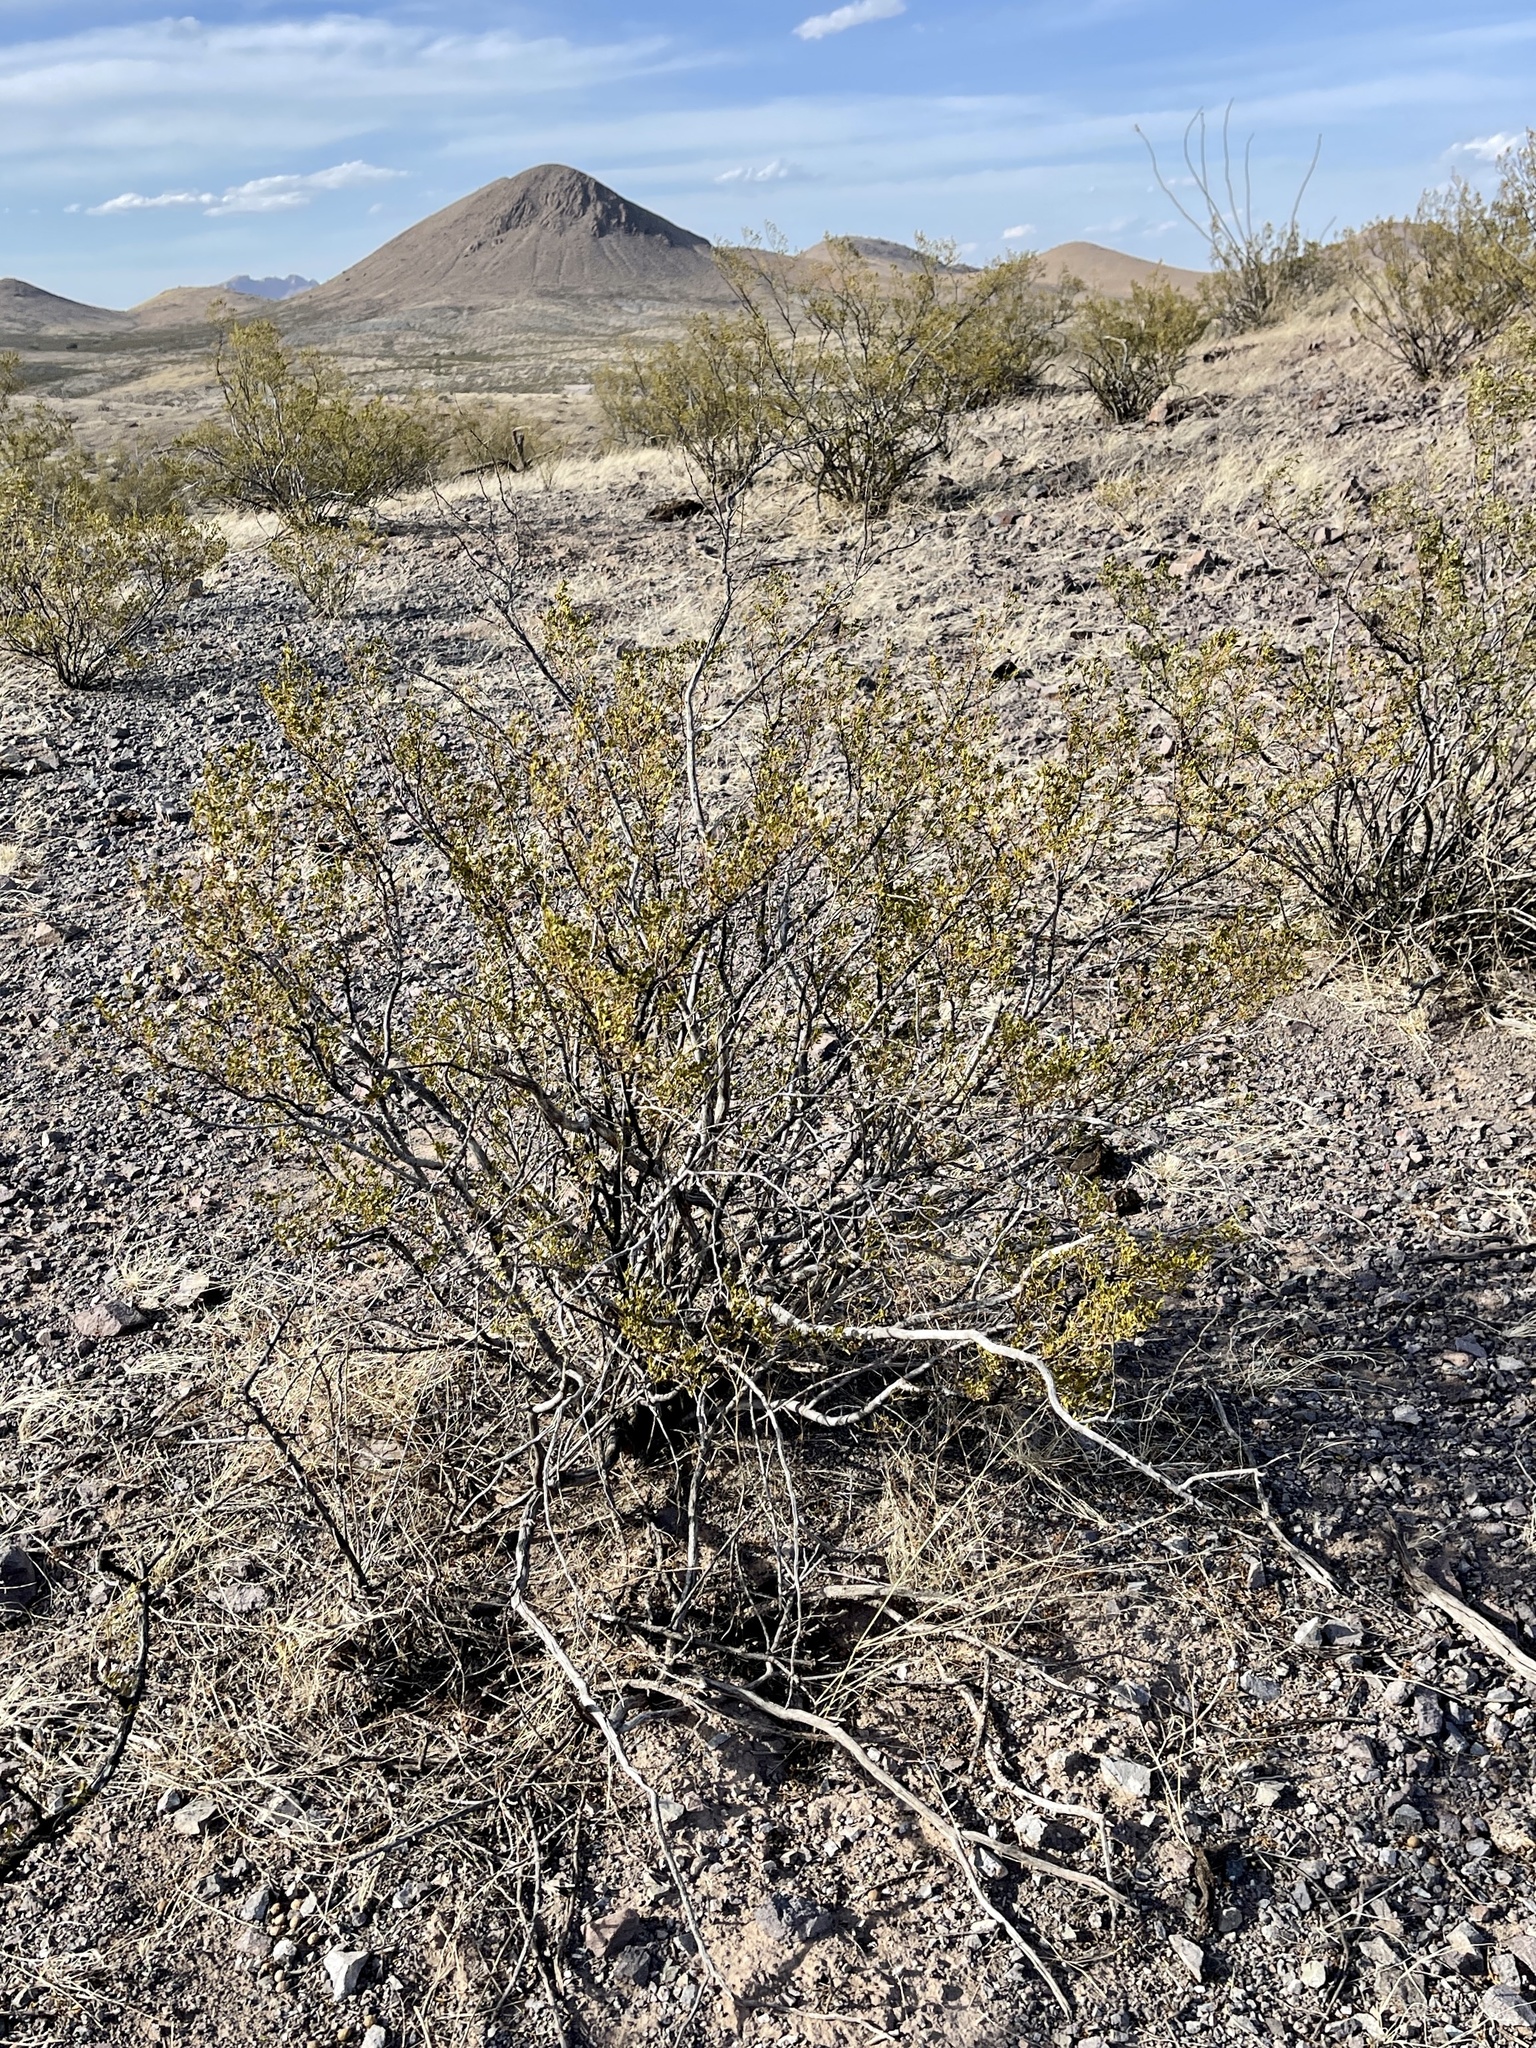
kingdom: Plantae
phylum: Tracheophyta
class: Magnoliopsida
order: Zygophyllales
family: Zygophyllaceae
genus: Larrea
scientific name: Larrea tridentata
